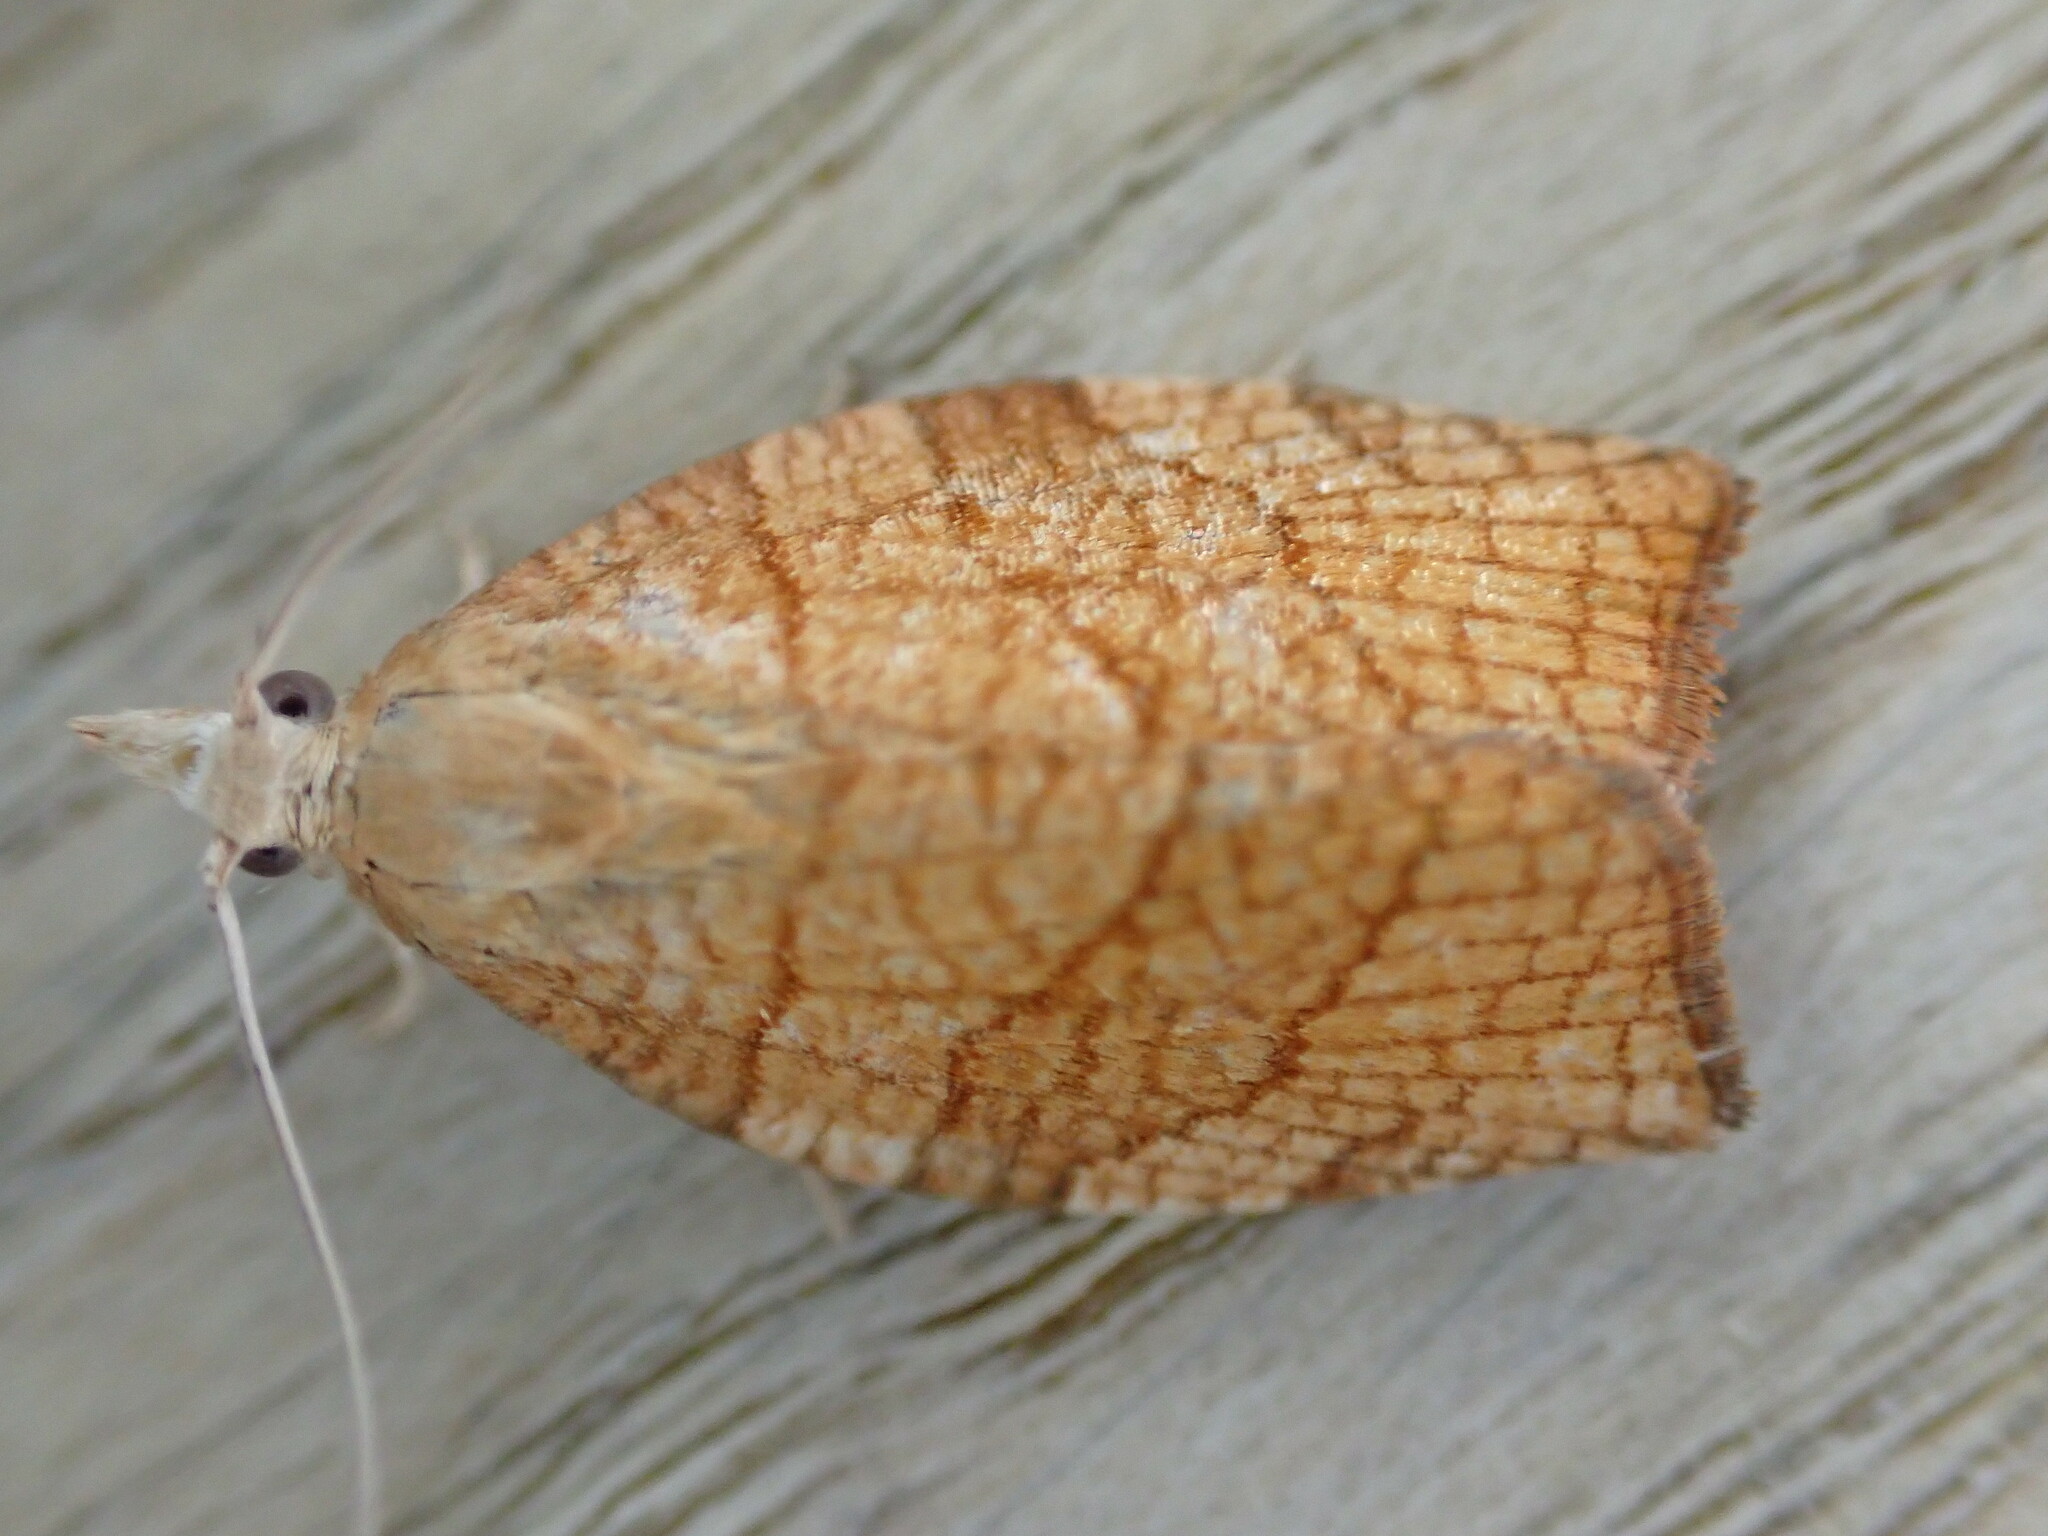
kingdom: Animalia
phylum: Arthropoda
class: Insecta
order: Lepidoptera
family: Tortricidae
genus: Pandemis
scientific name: Pandemis corylana
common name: Chequered fruit-tree tortrix
